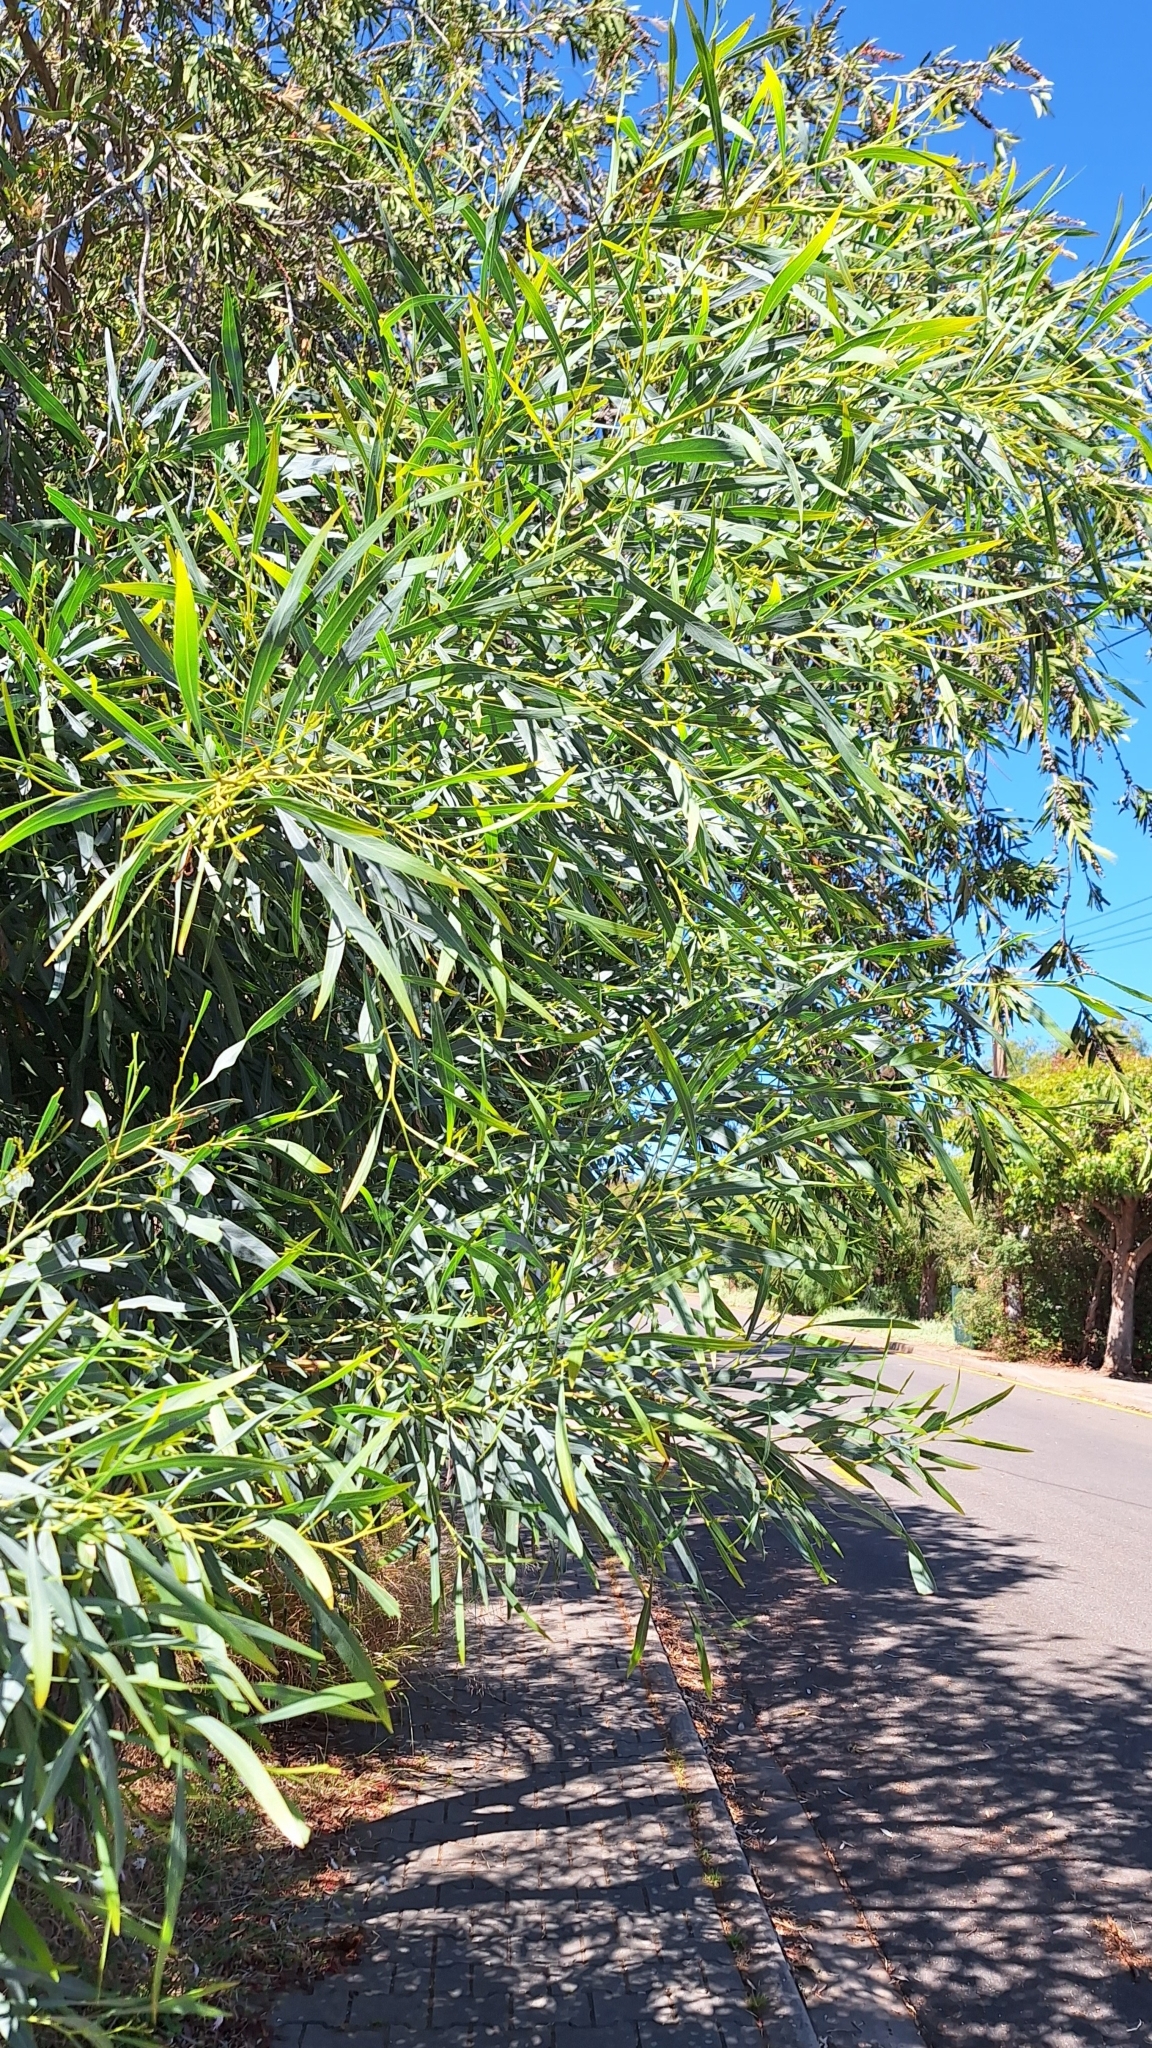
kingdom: Plantae
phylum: Tracheophyta
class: Magnoliopsida
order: Fabales
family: Fabaceae
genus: Acacia
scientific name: Acacia saligna
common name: Orange wattle
